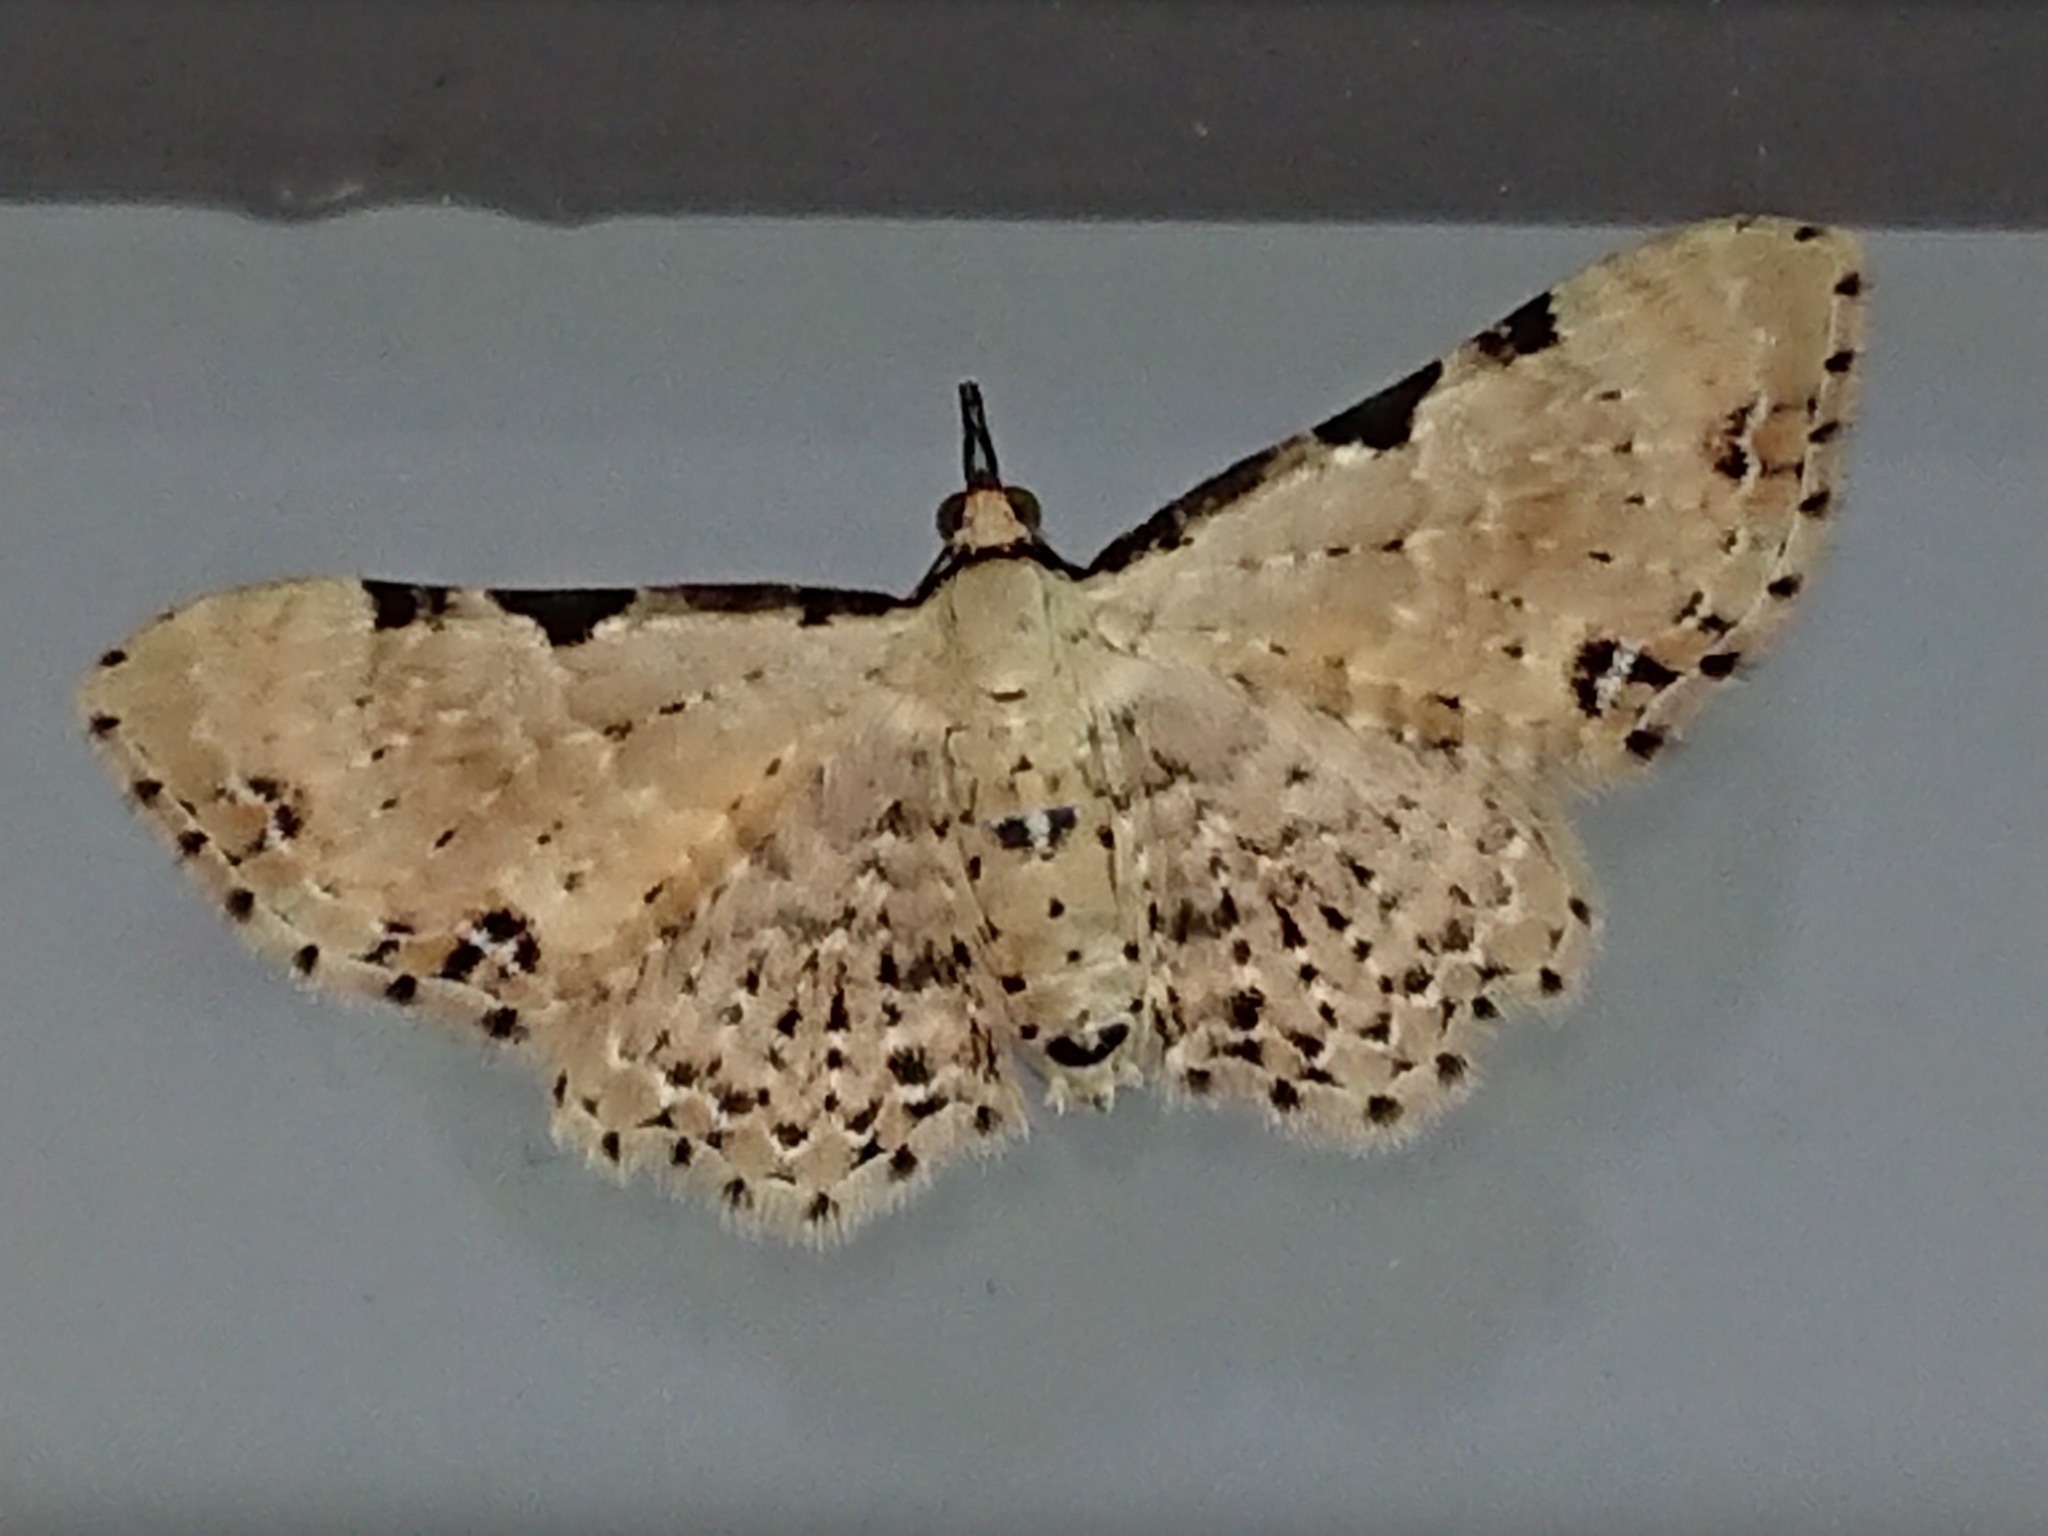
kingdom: Animalia
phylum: Arthropoda
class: Insecta
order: Lepidoptera
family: Geometridae
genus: Pasiphila
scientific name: Pasiphila fumipalpata
